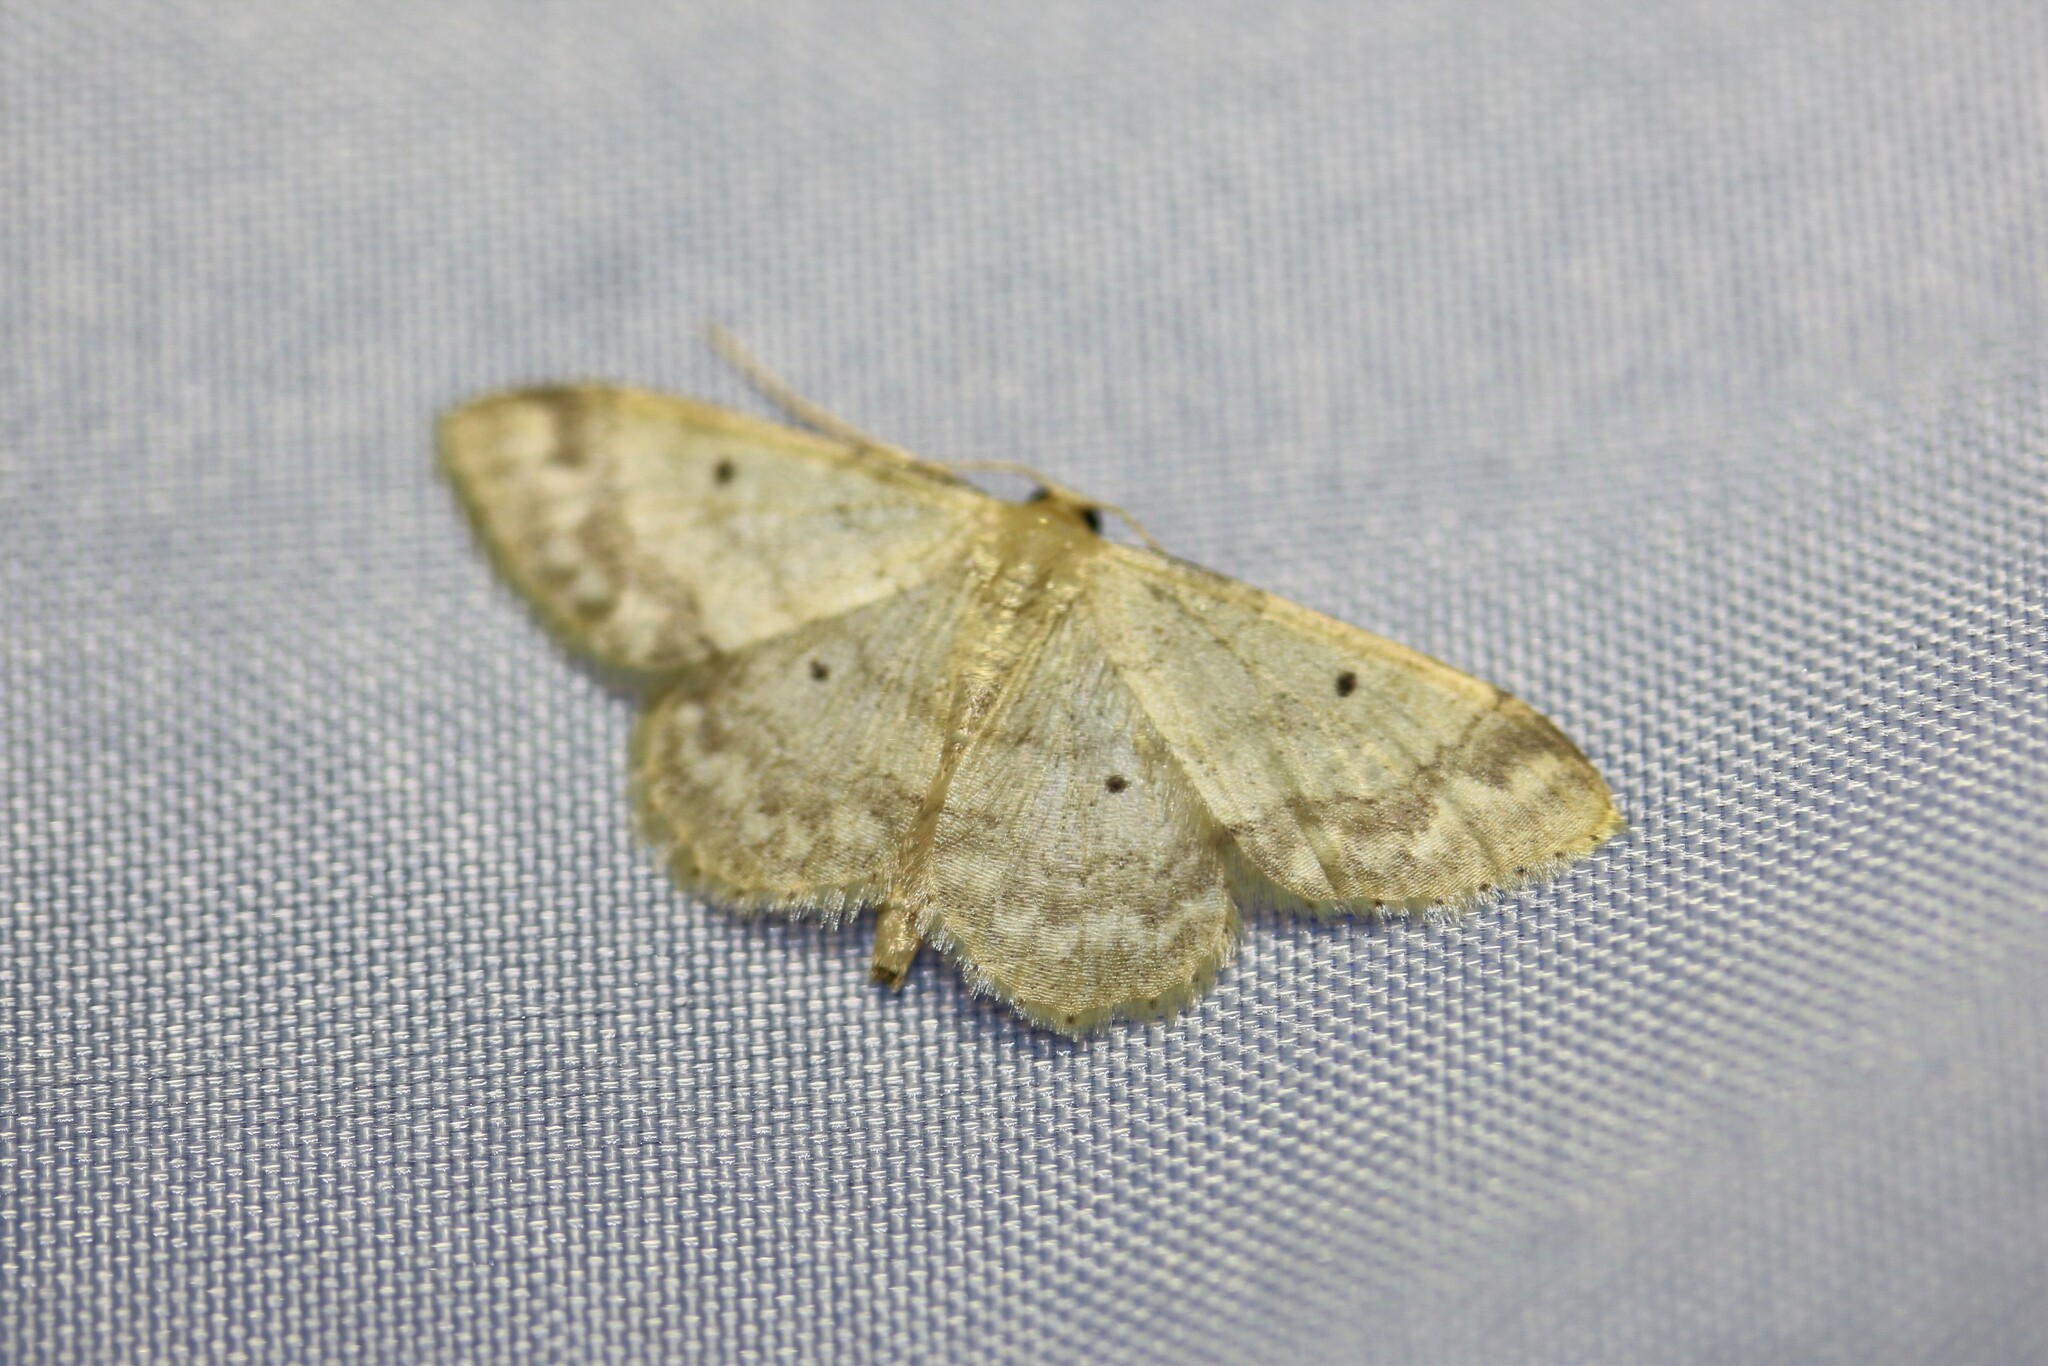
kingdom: Animalia
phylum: Arthropoda
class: Insecta
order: Lepidoptera
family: Geometridae
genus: Idaea
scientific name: Idaea biselata
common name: Small fan-footed wave
